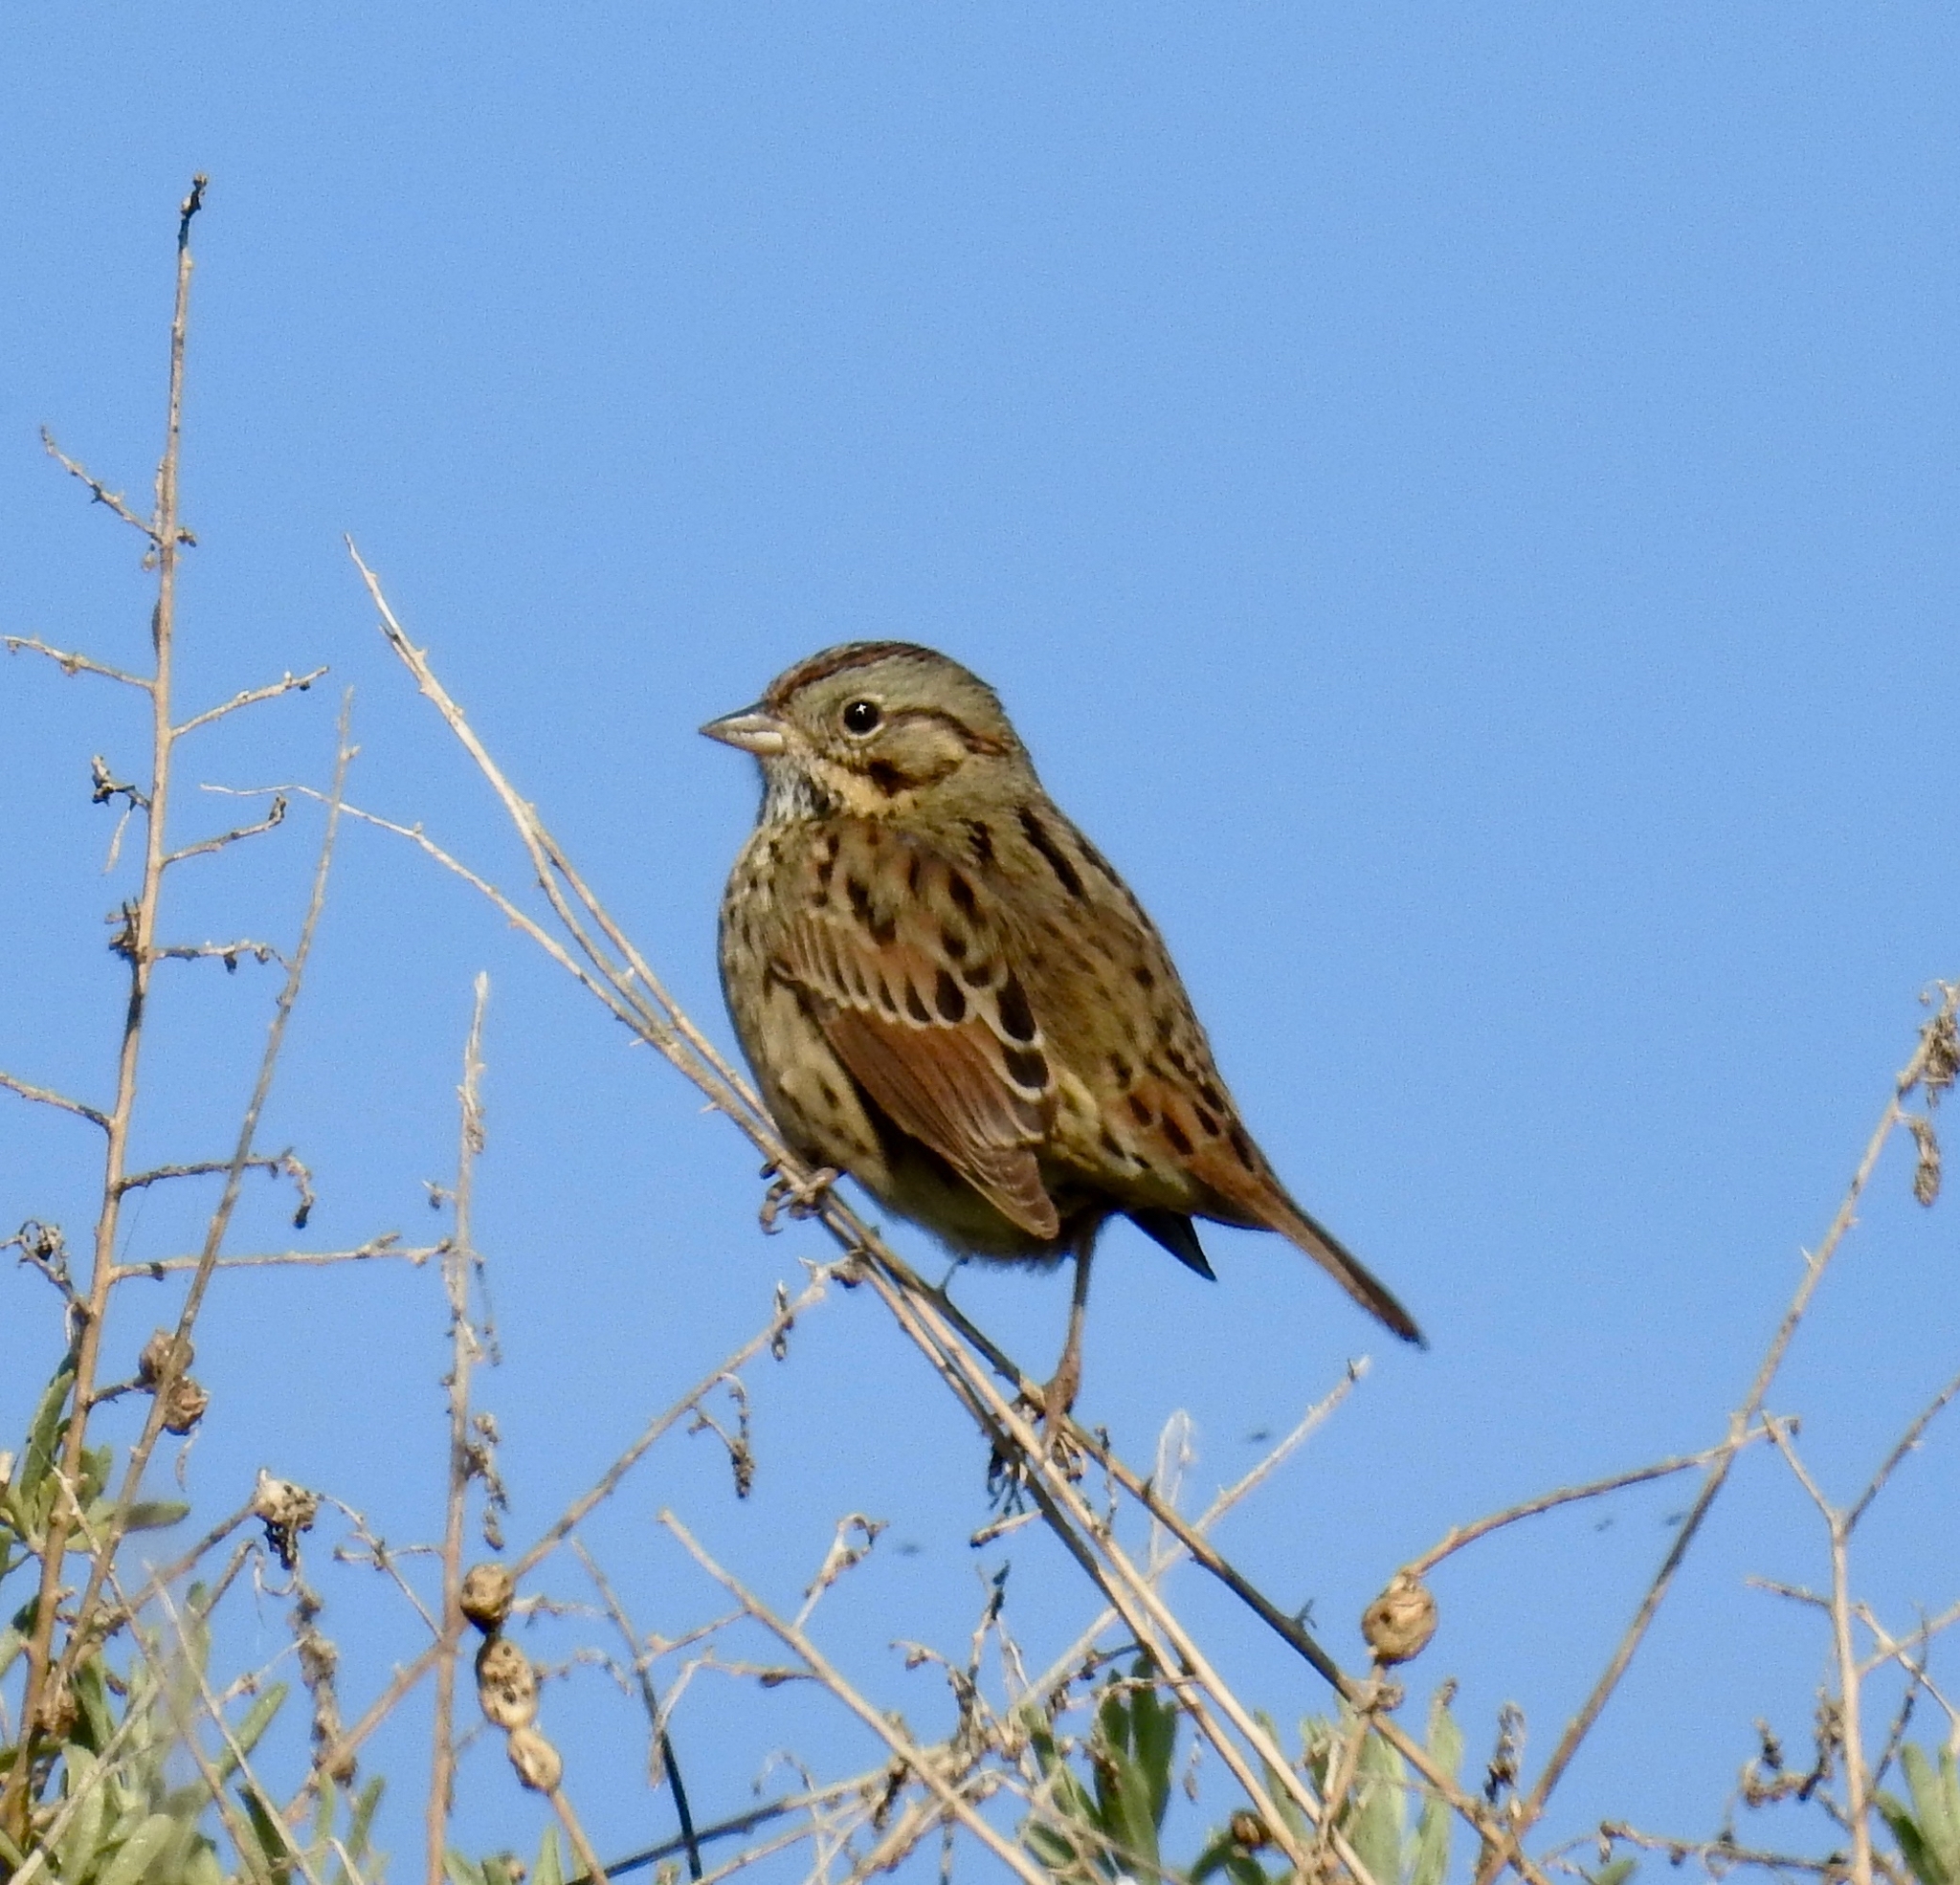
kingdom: Animalia
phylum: Chordata
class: Aves
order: Passeriformes
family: Passerellidae
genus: Melospiza
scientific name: Melospiza lincolnii
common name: Lincoln's sparrow
